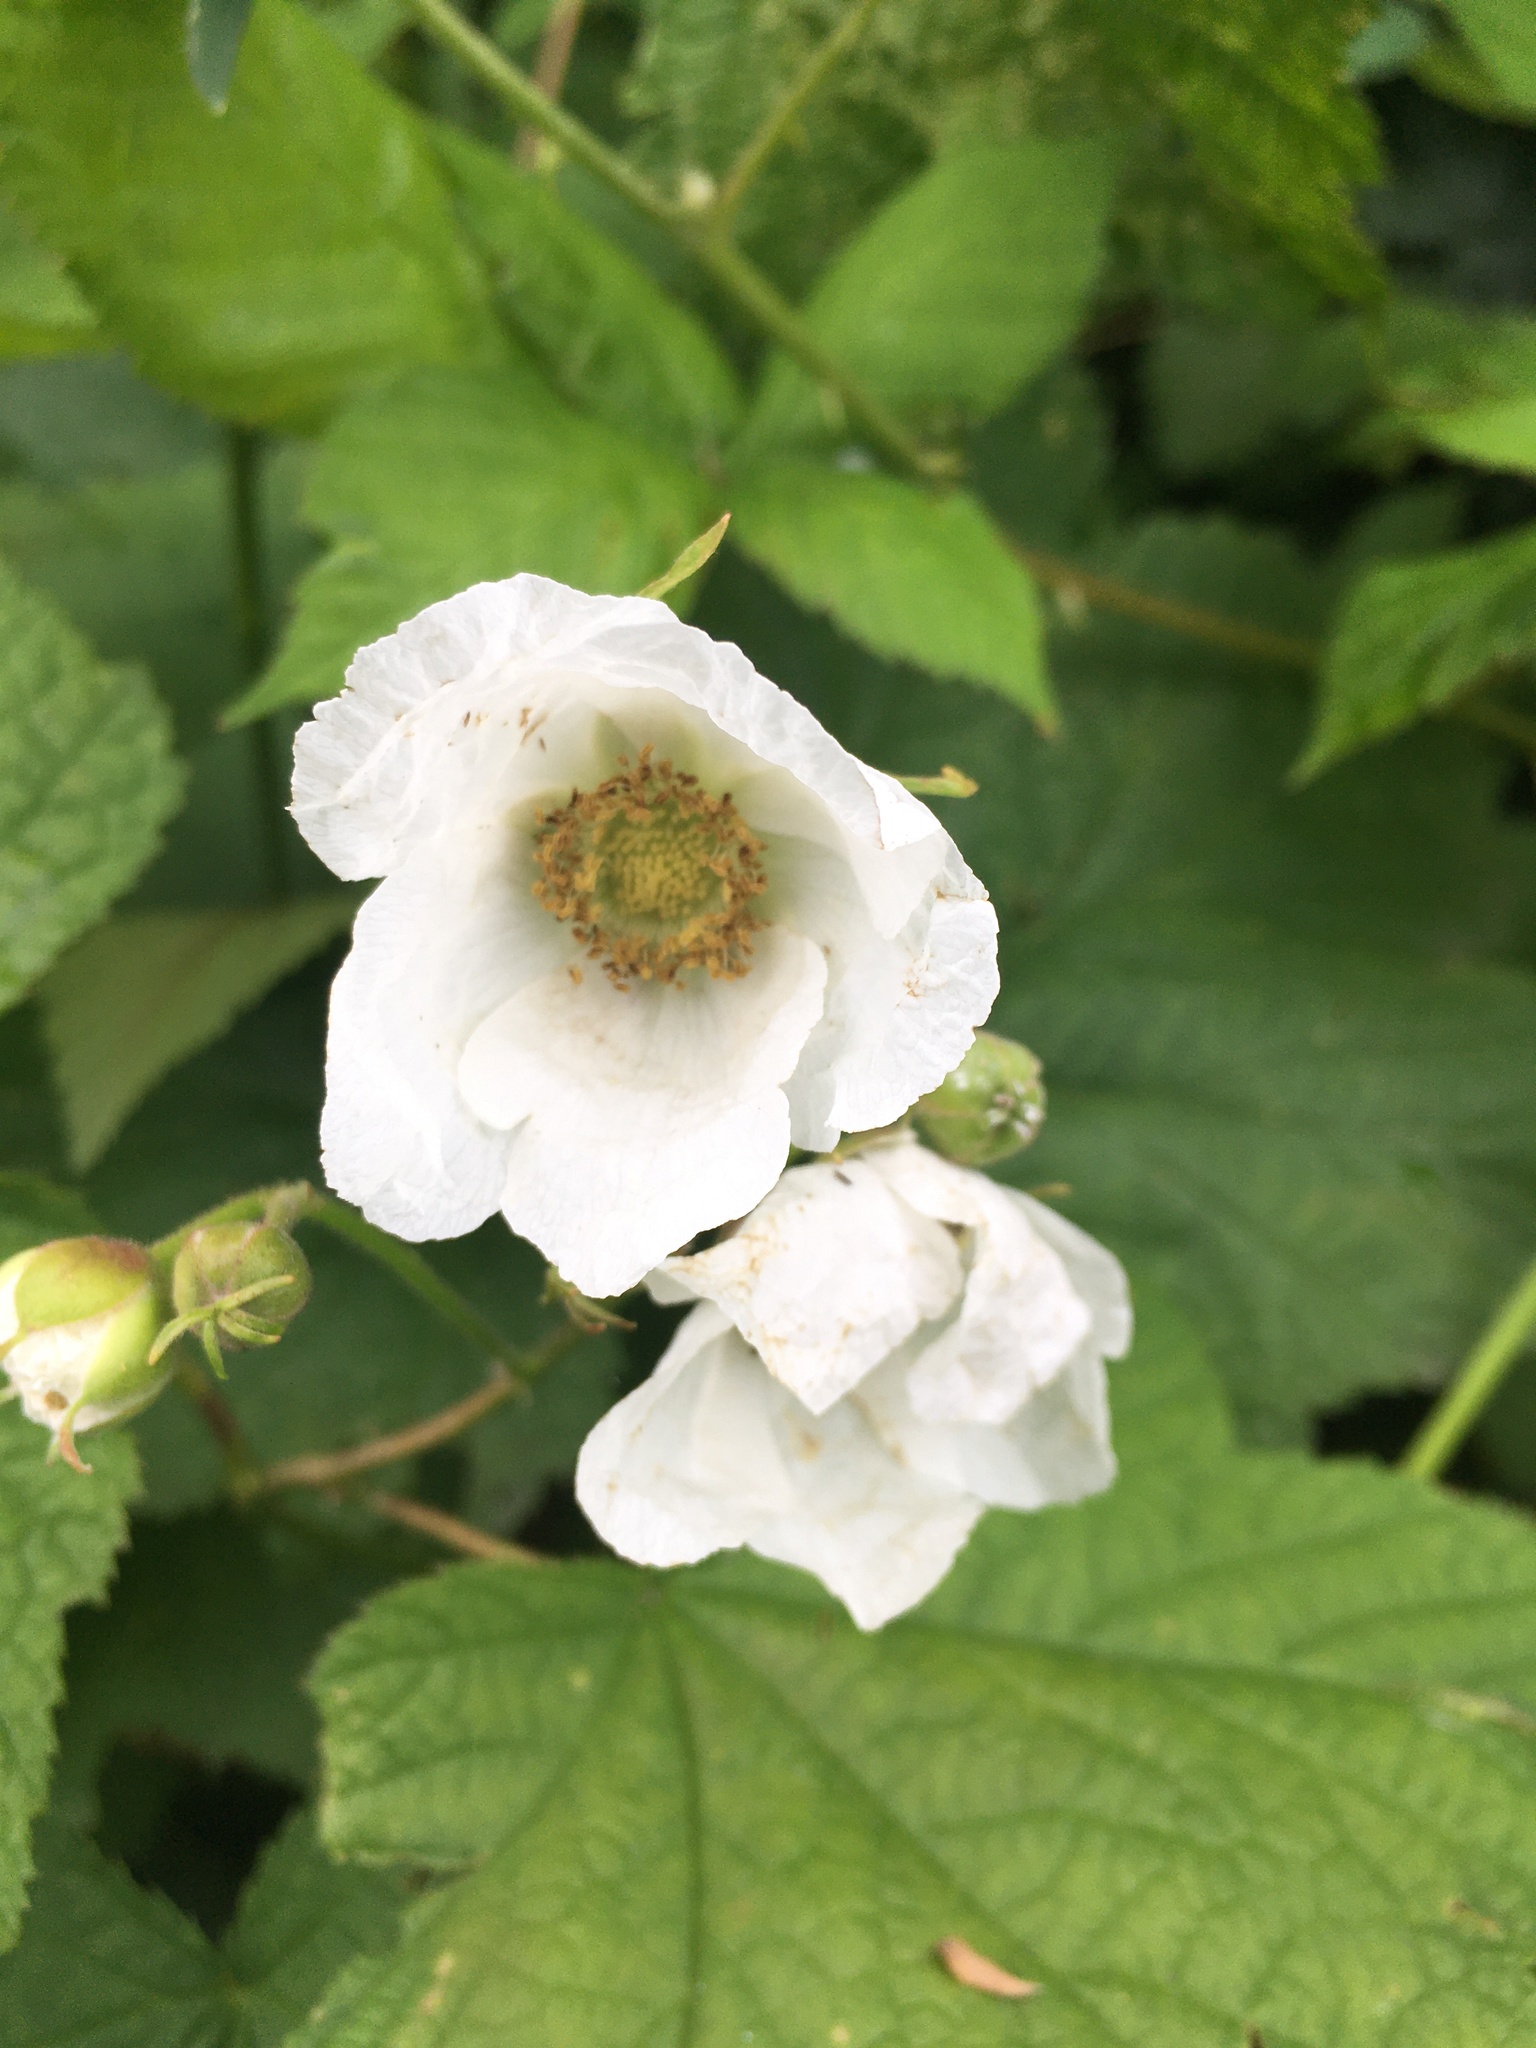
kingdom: Plantae
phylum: Tracheophyta
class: Magnoliopsida
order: Rosales
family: Rosaceae
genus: Rubus
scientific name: Rubus parviflorus
